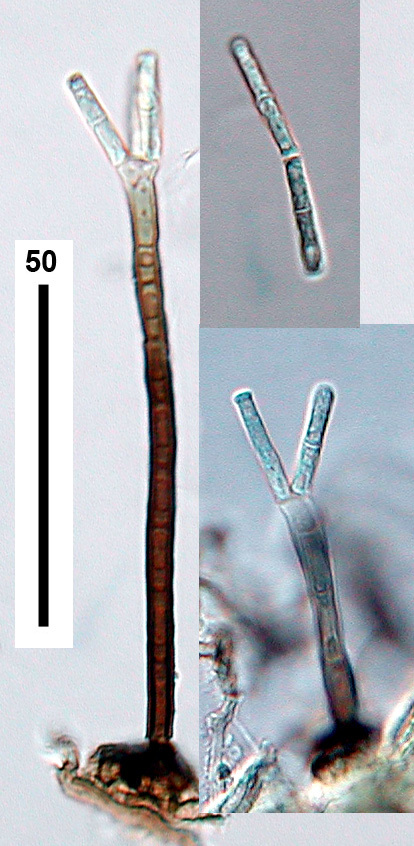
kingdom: Fungi
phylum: Ascomycota
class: Sordariomycetes
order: Xylariales
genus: Polyscytalum
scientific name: Polyscytalum truncatum
